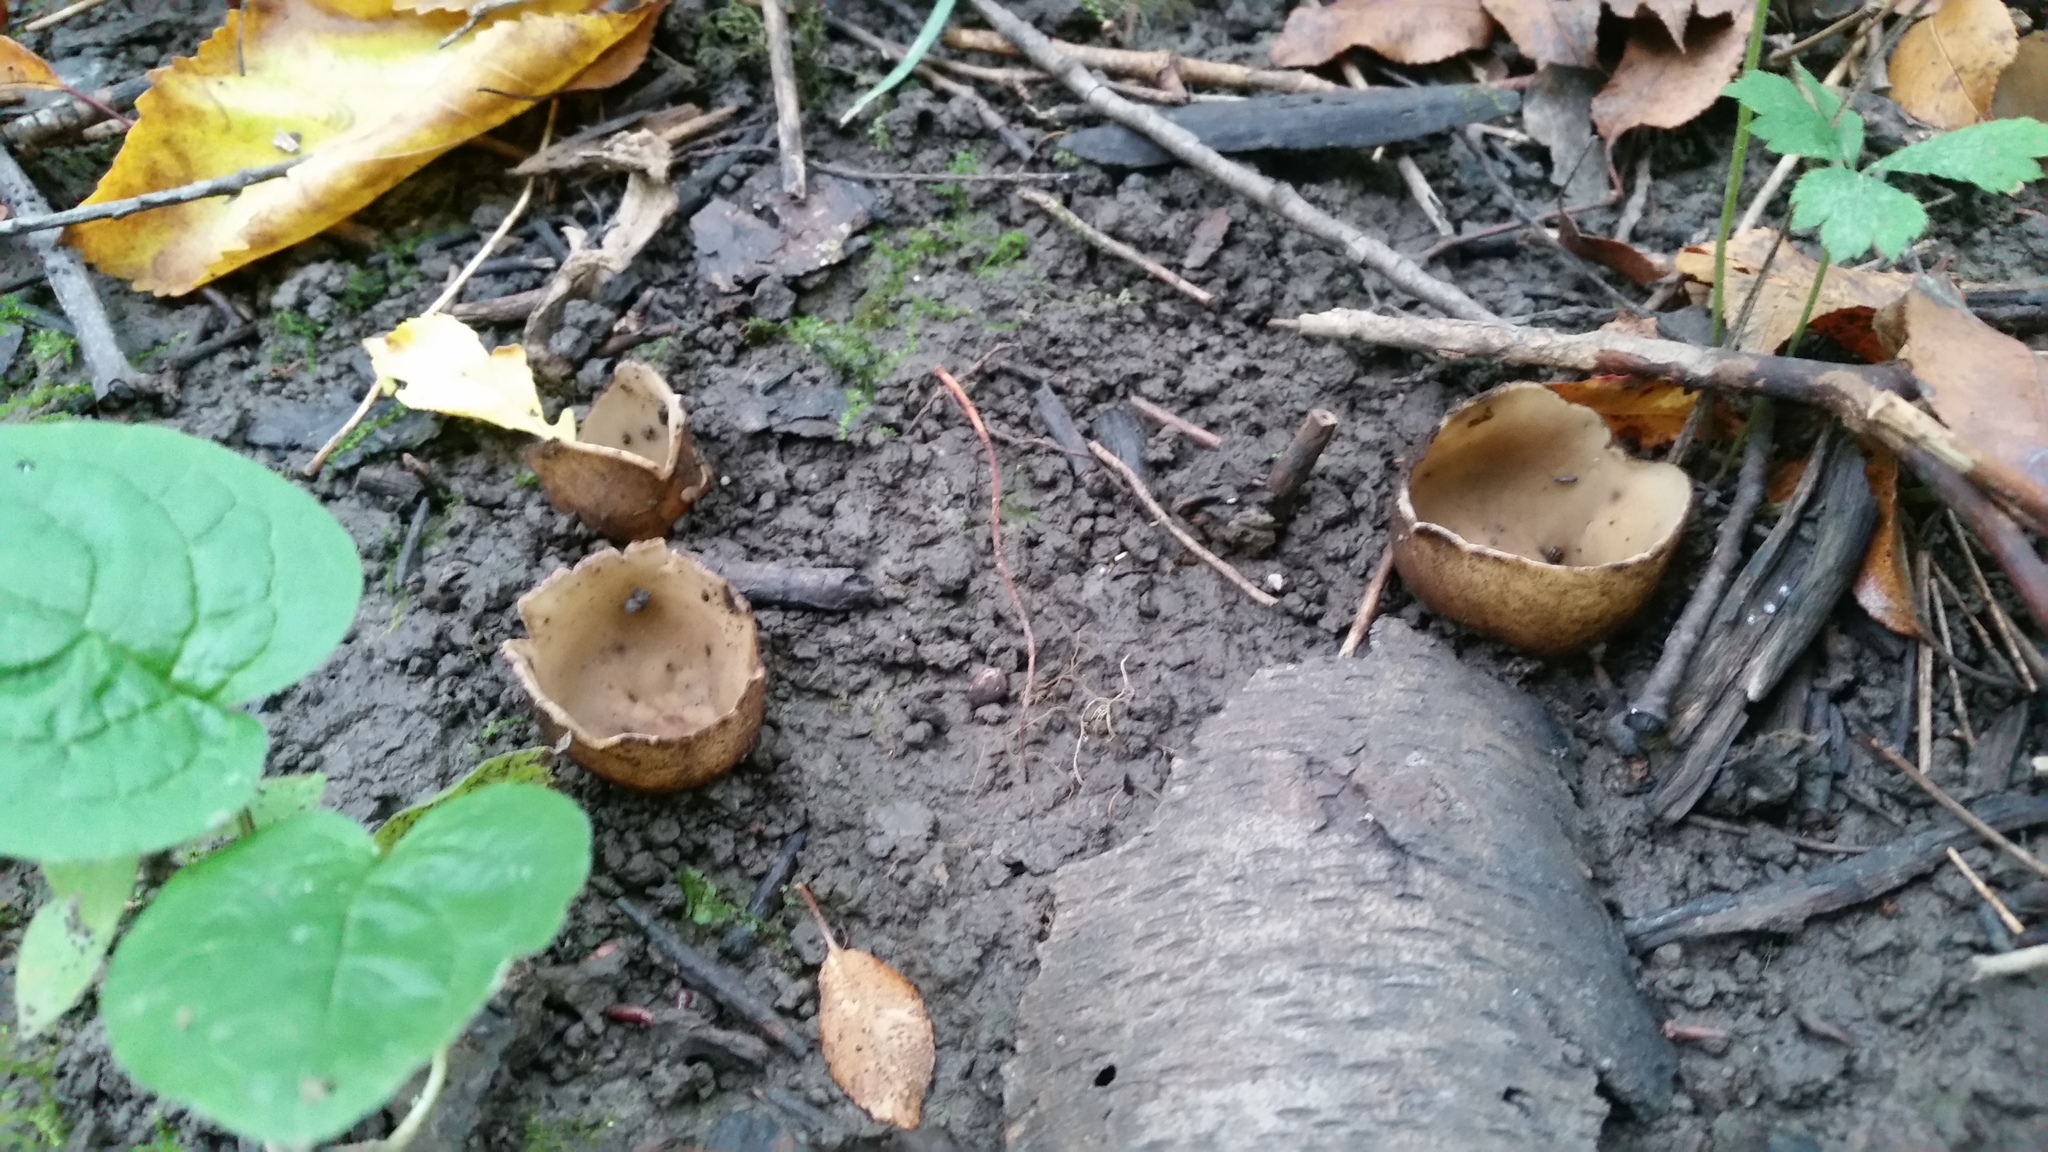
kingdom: Fungi
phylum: Ascomycota
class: Pezizomycetes
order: Pezizales
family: Pyronemataceae
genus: Jafnea
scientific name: Jafnea semitosta
